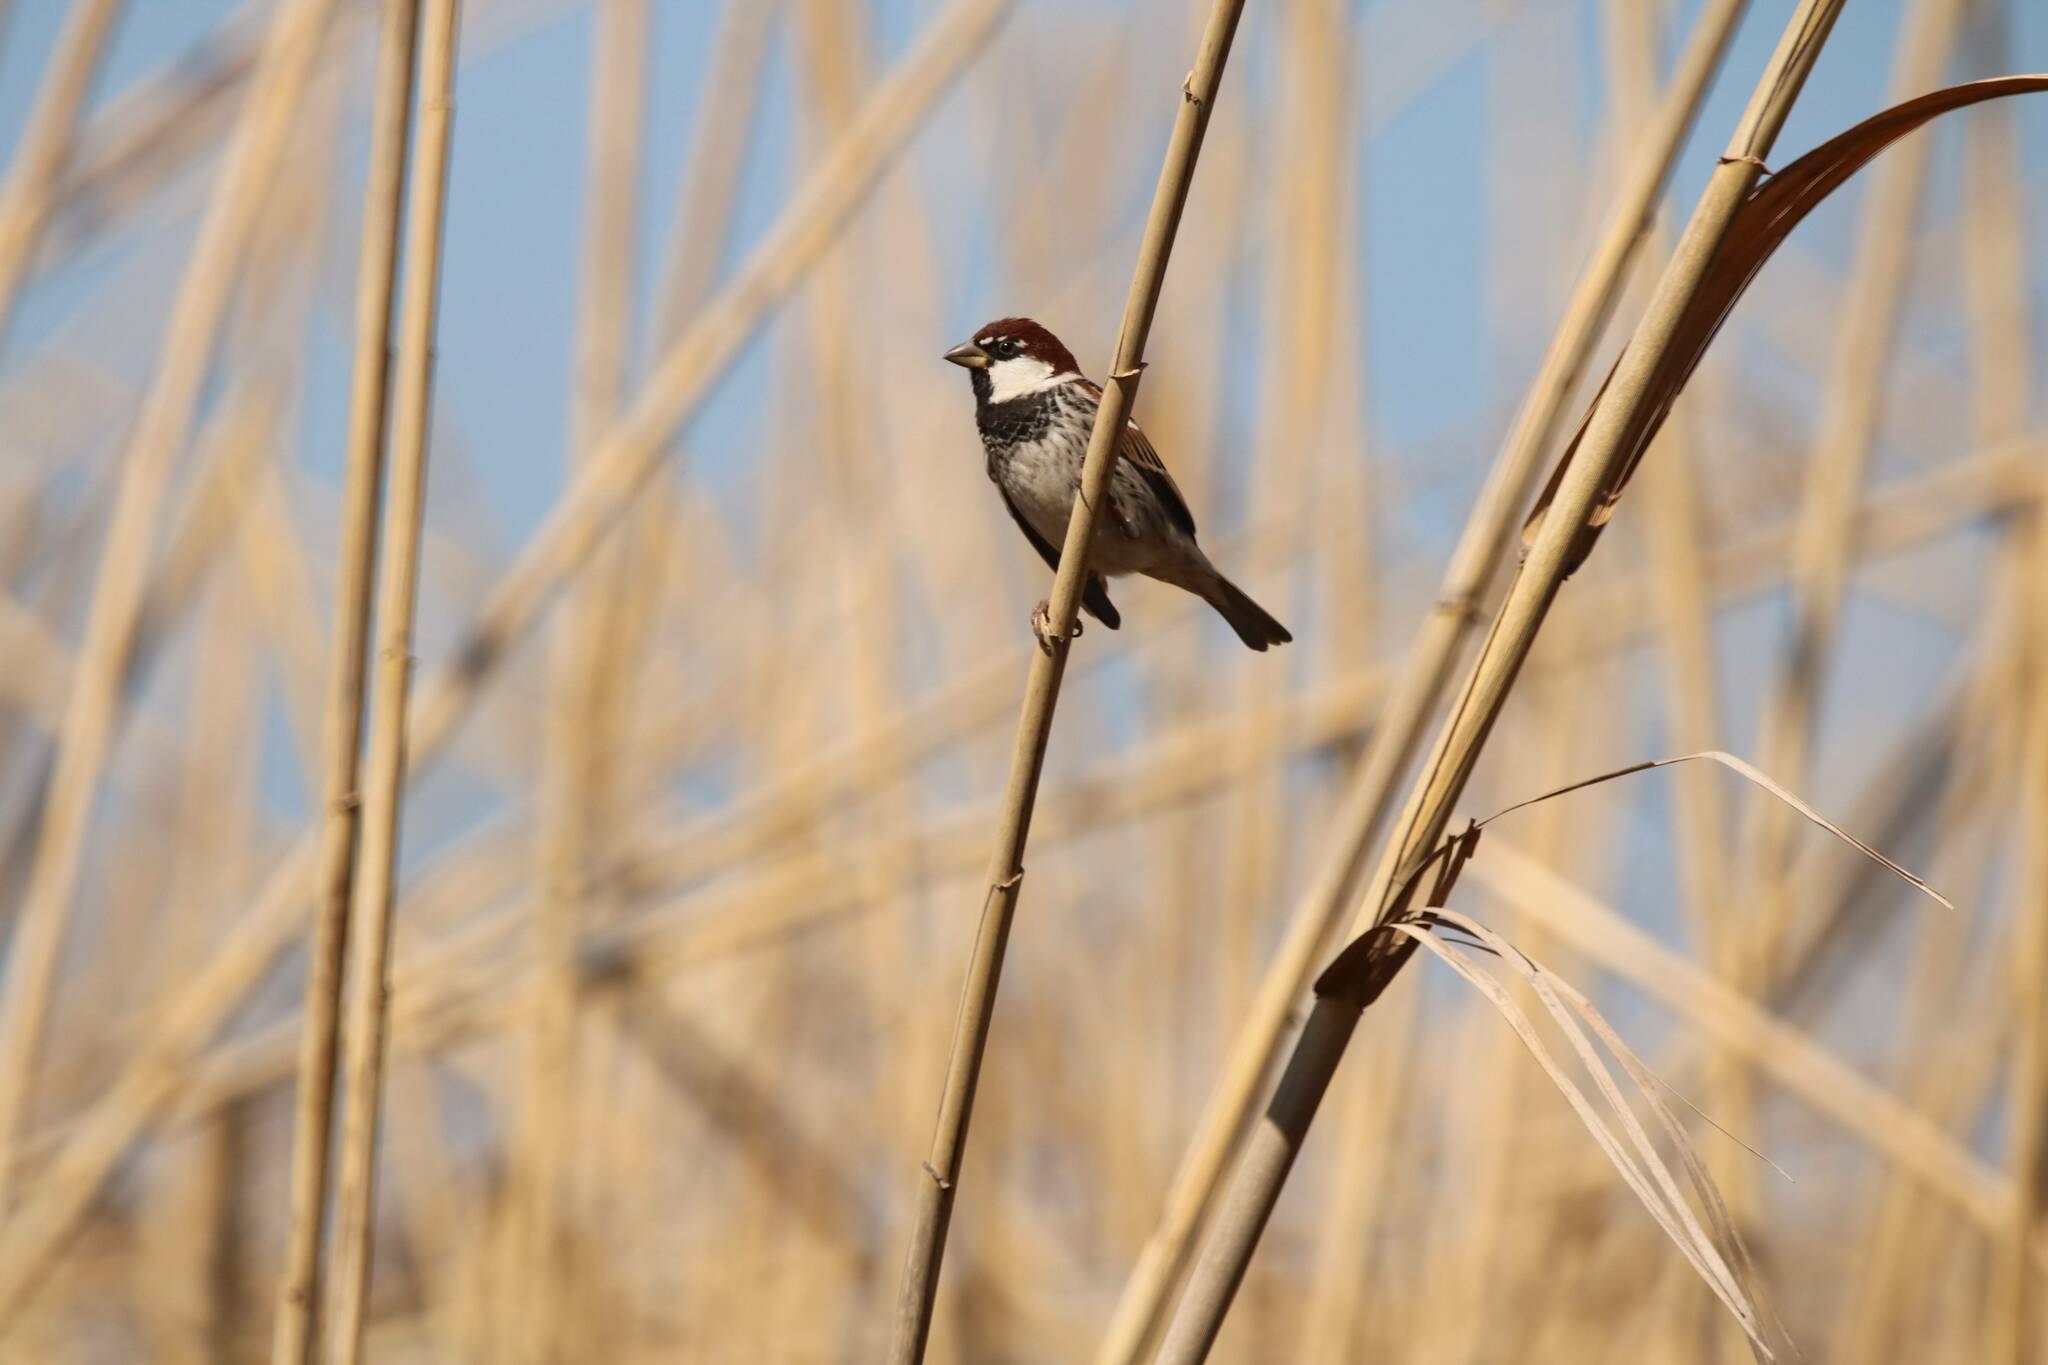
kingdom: Animalia
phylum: Chordata
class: Aves
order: Passeriformes
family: Passeridae
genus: Passer
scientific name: Passer hispaniolensis
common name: Spanish sparrow
